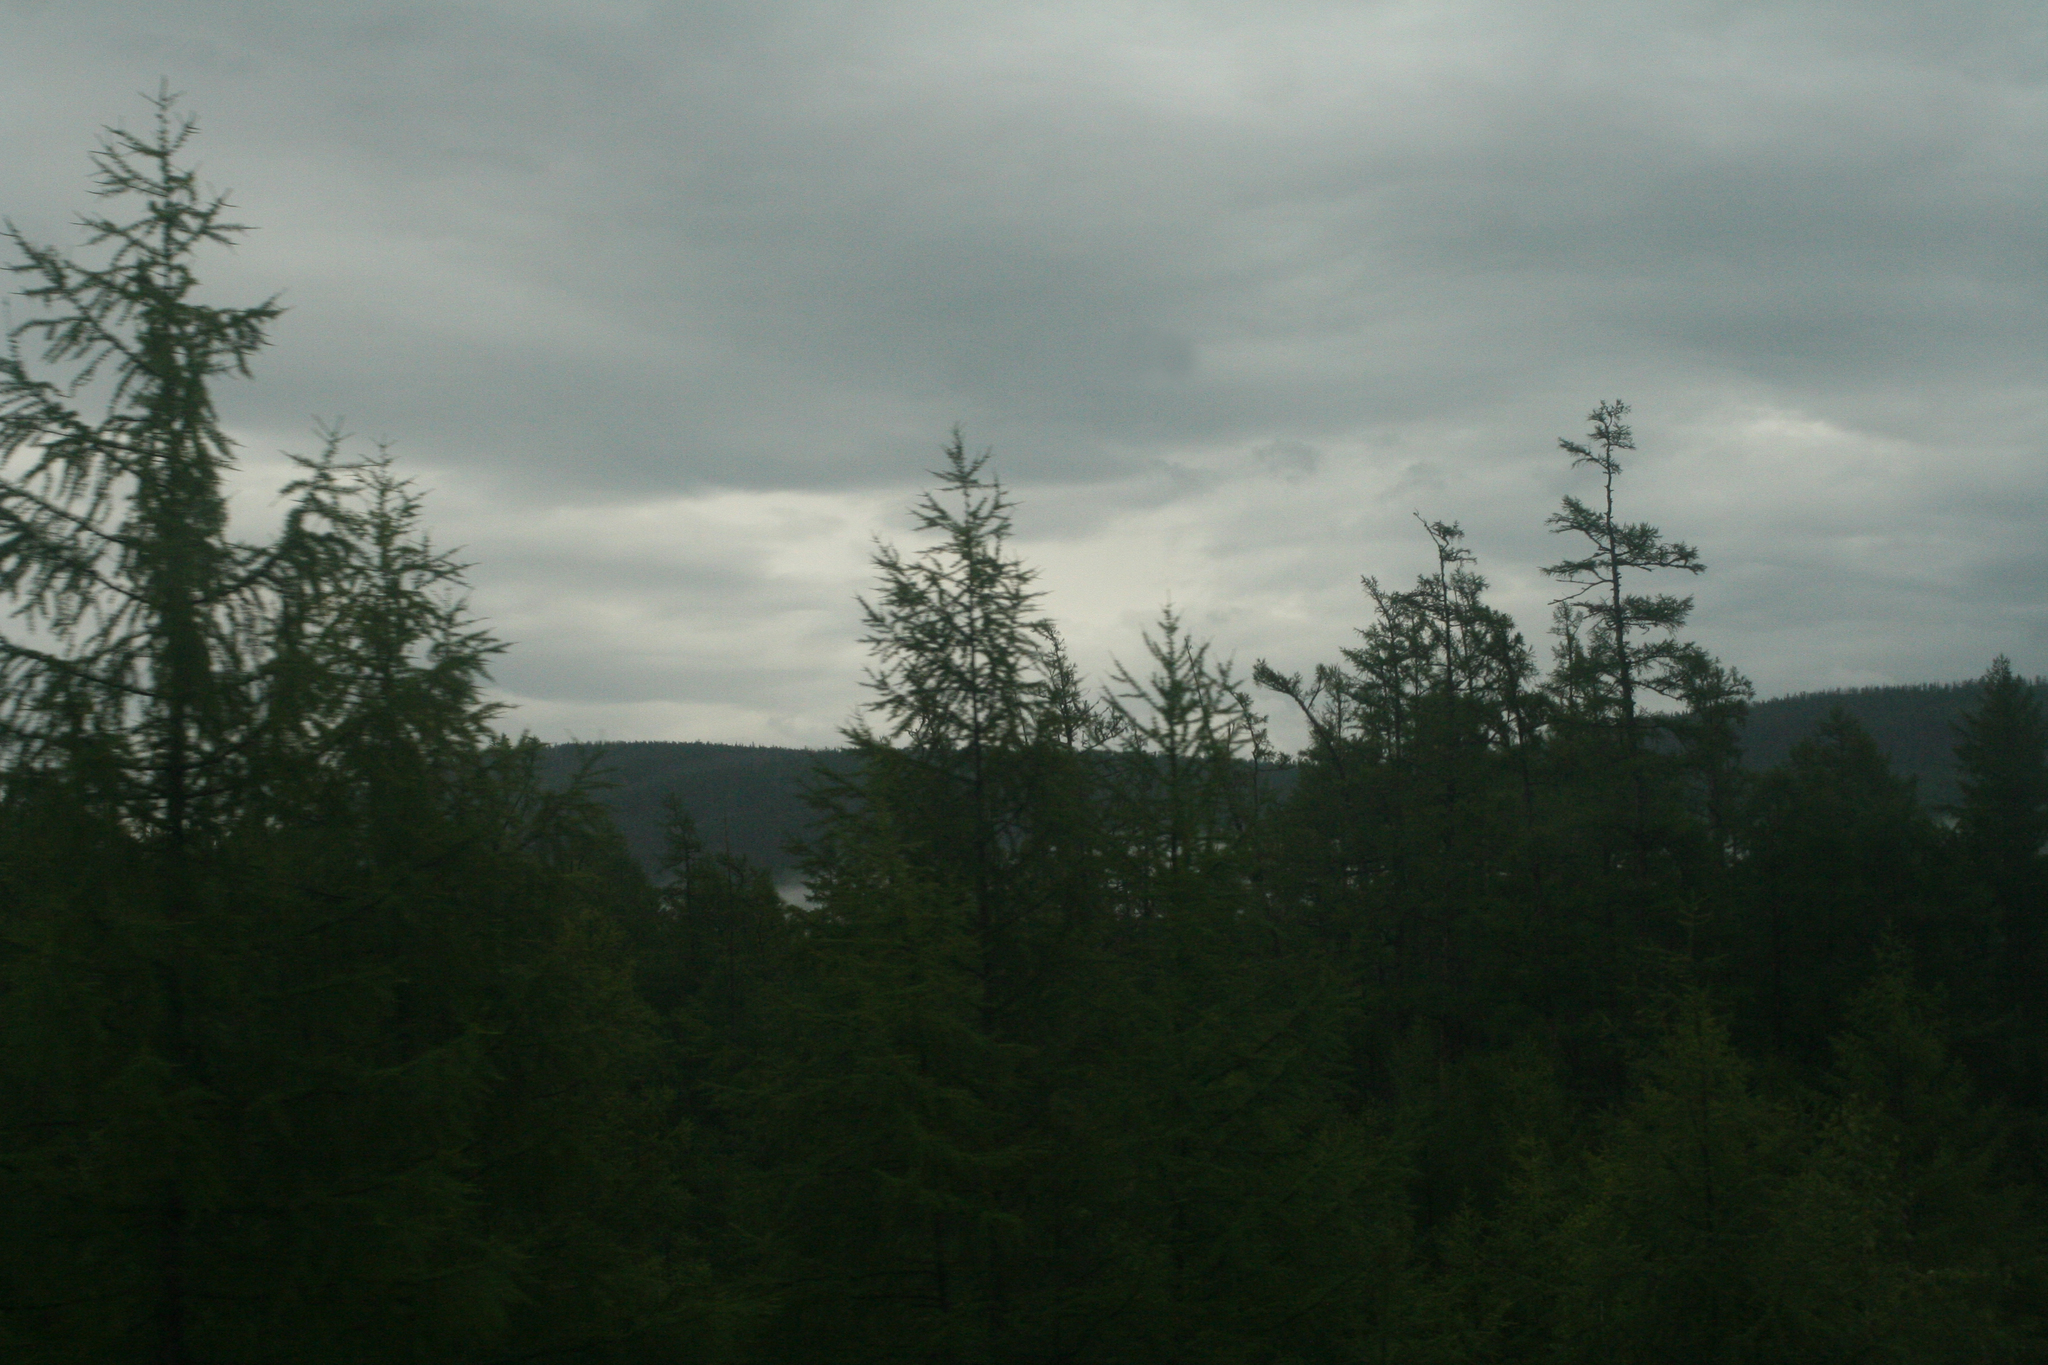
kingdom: Plantae
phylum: Tracheophyta
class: Pinopsida
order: Pinales
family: Pinaceae
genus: Larix
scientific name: Larix gmelinii
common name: Dahurian larch
